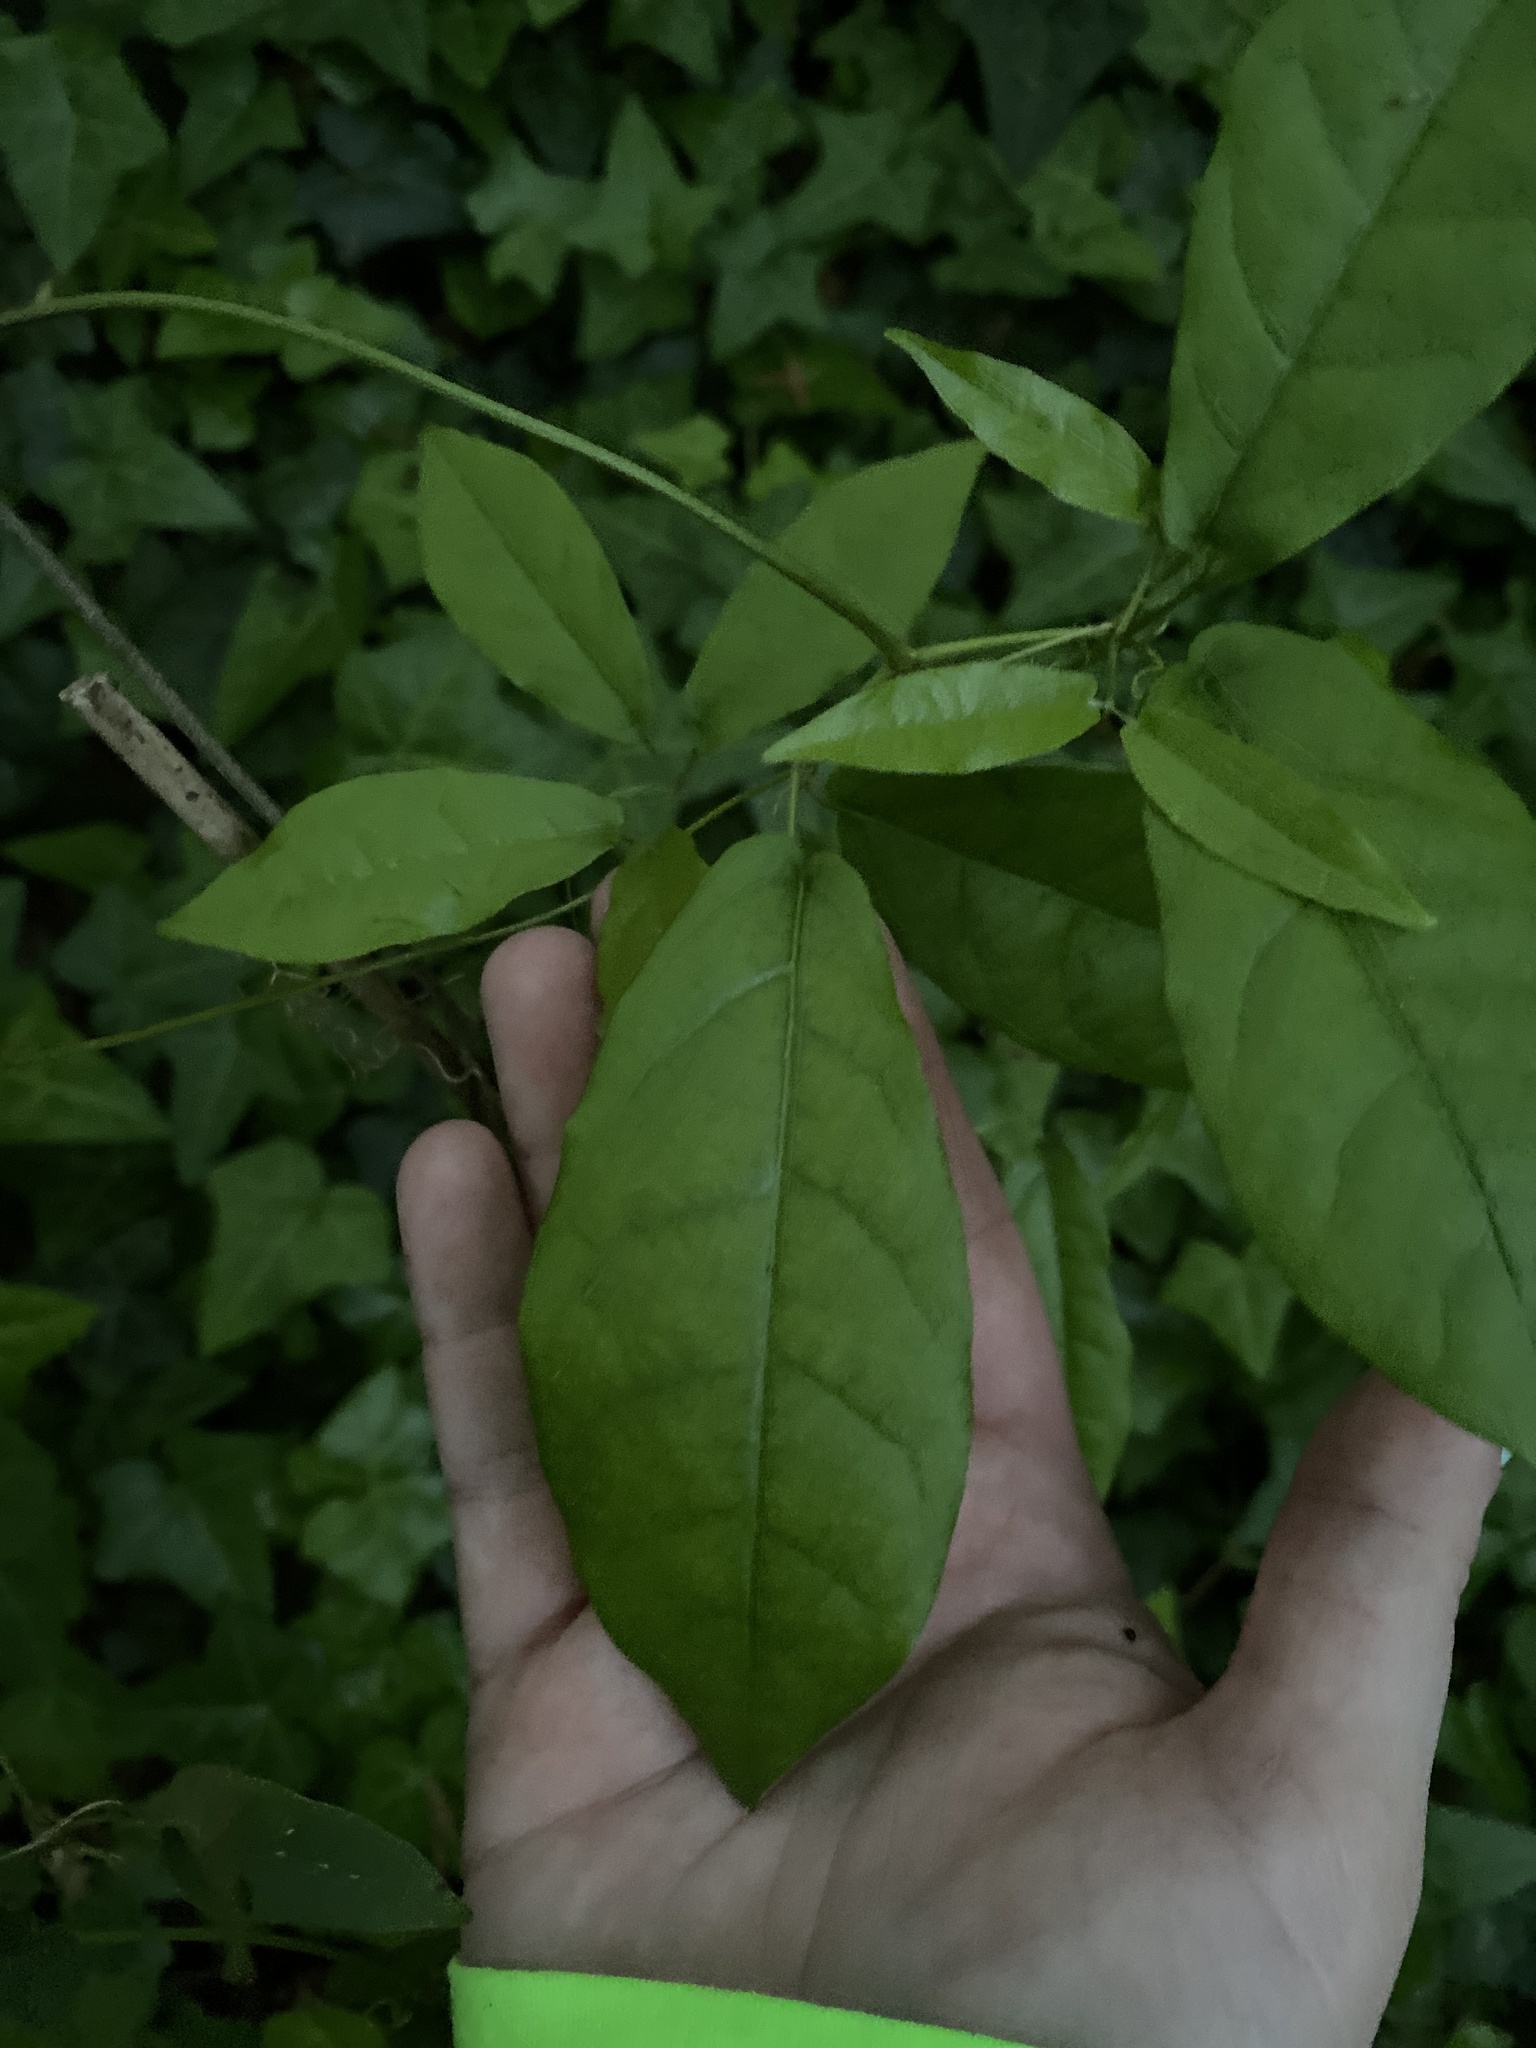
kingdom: Plantae
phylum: Tracheophyta
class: Magnoliopsida
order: Lamiales
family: Bignoniaceae
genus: Bignonia
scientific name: Bignonia capreolata
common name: Crossvine
